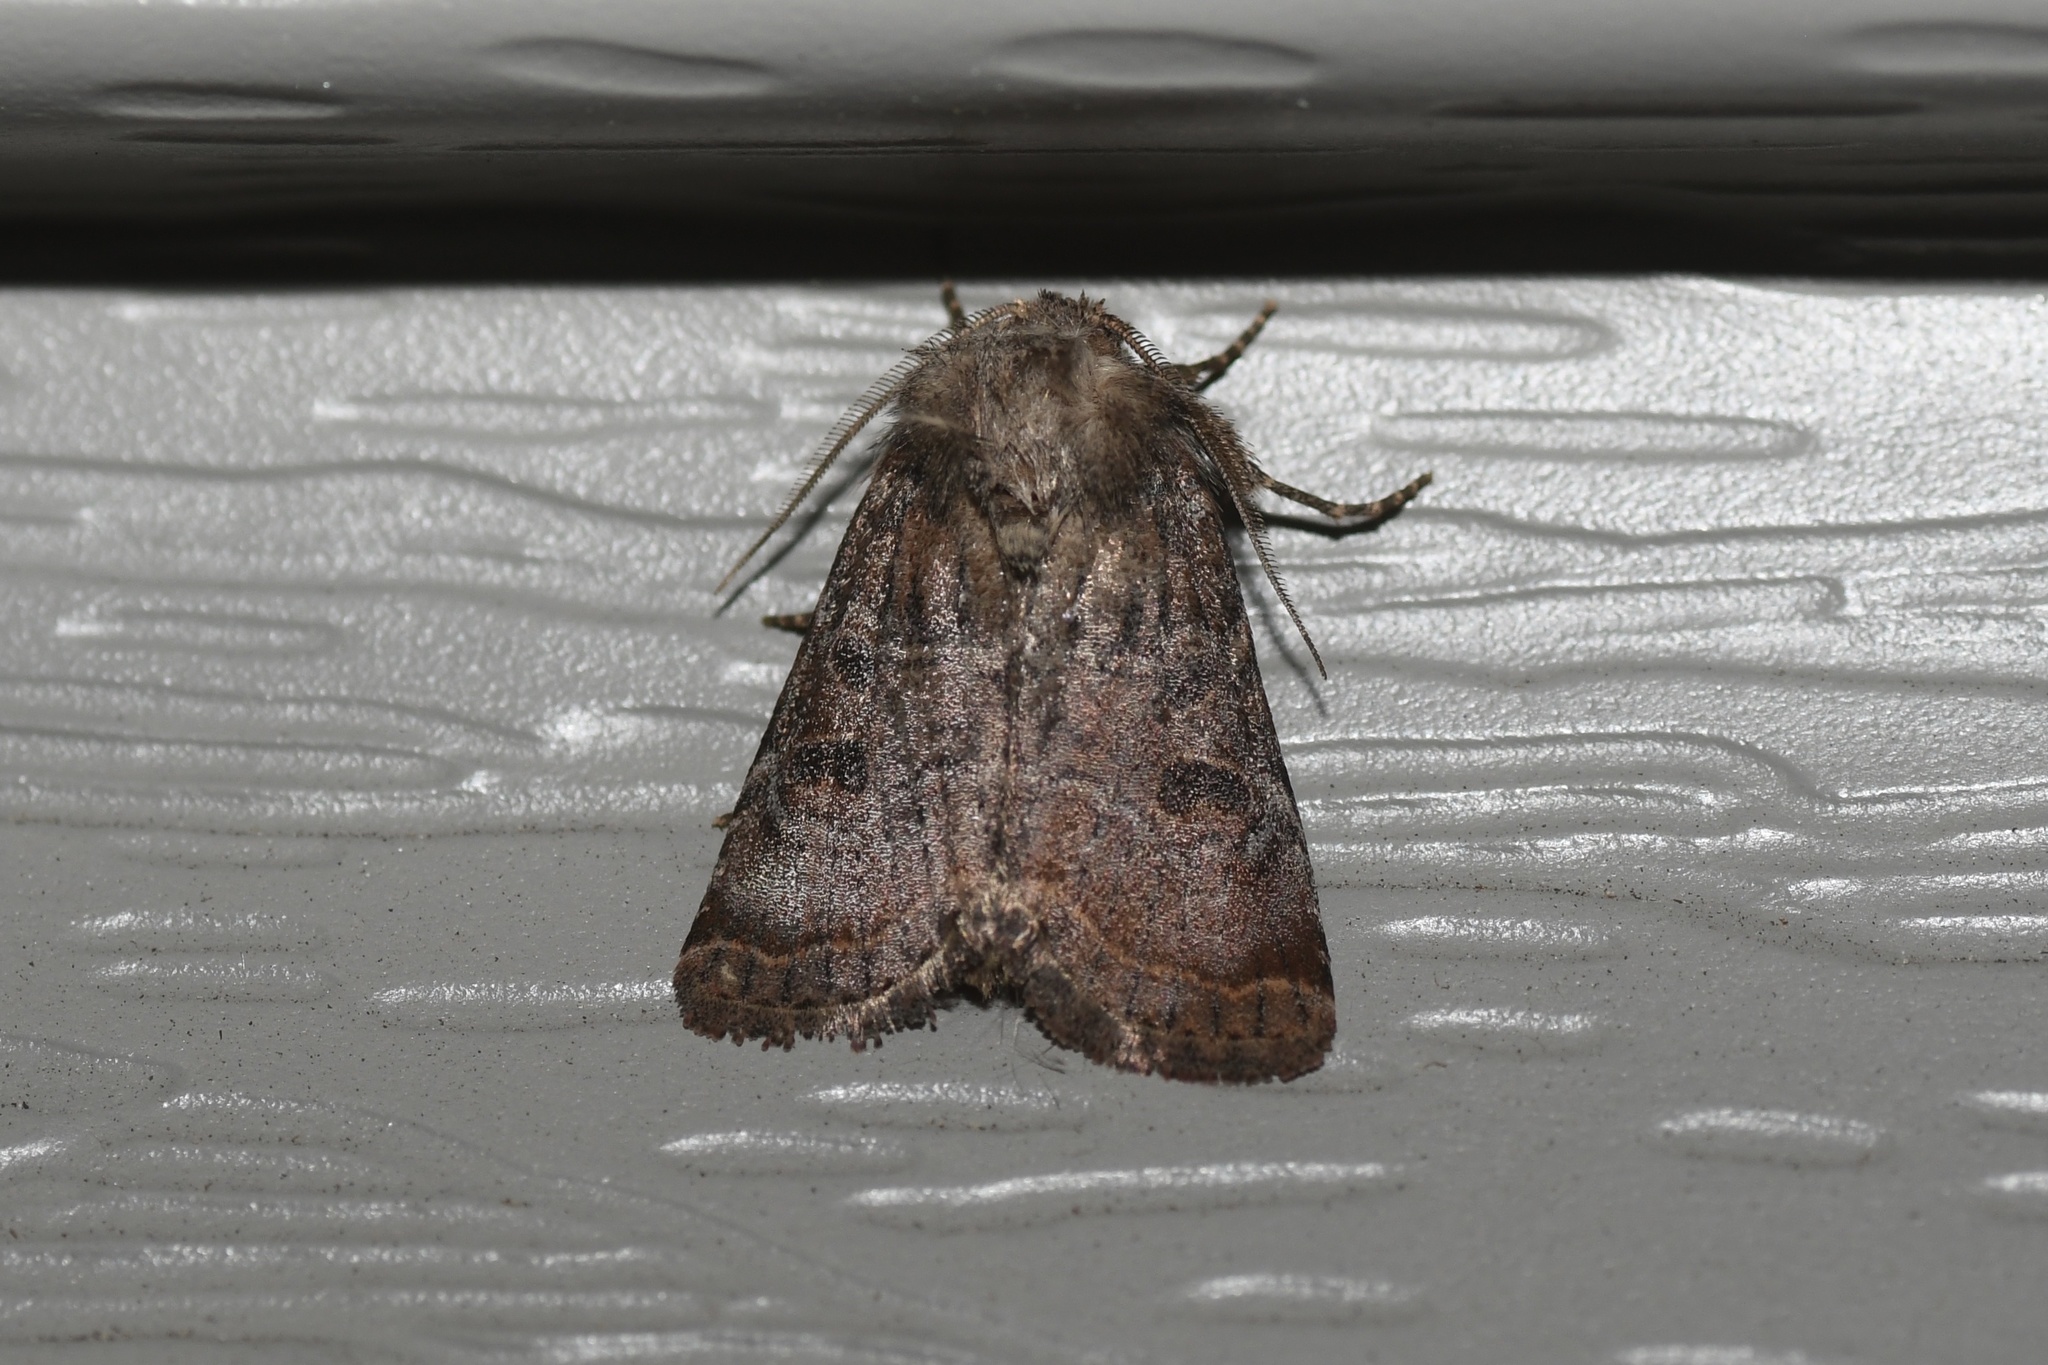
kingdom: Animalia
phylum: Arthropoda
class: Insecta
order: Lepidoptera
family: Noctuidae
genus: Trichopolia
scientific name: Trichopolia
